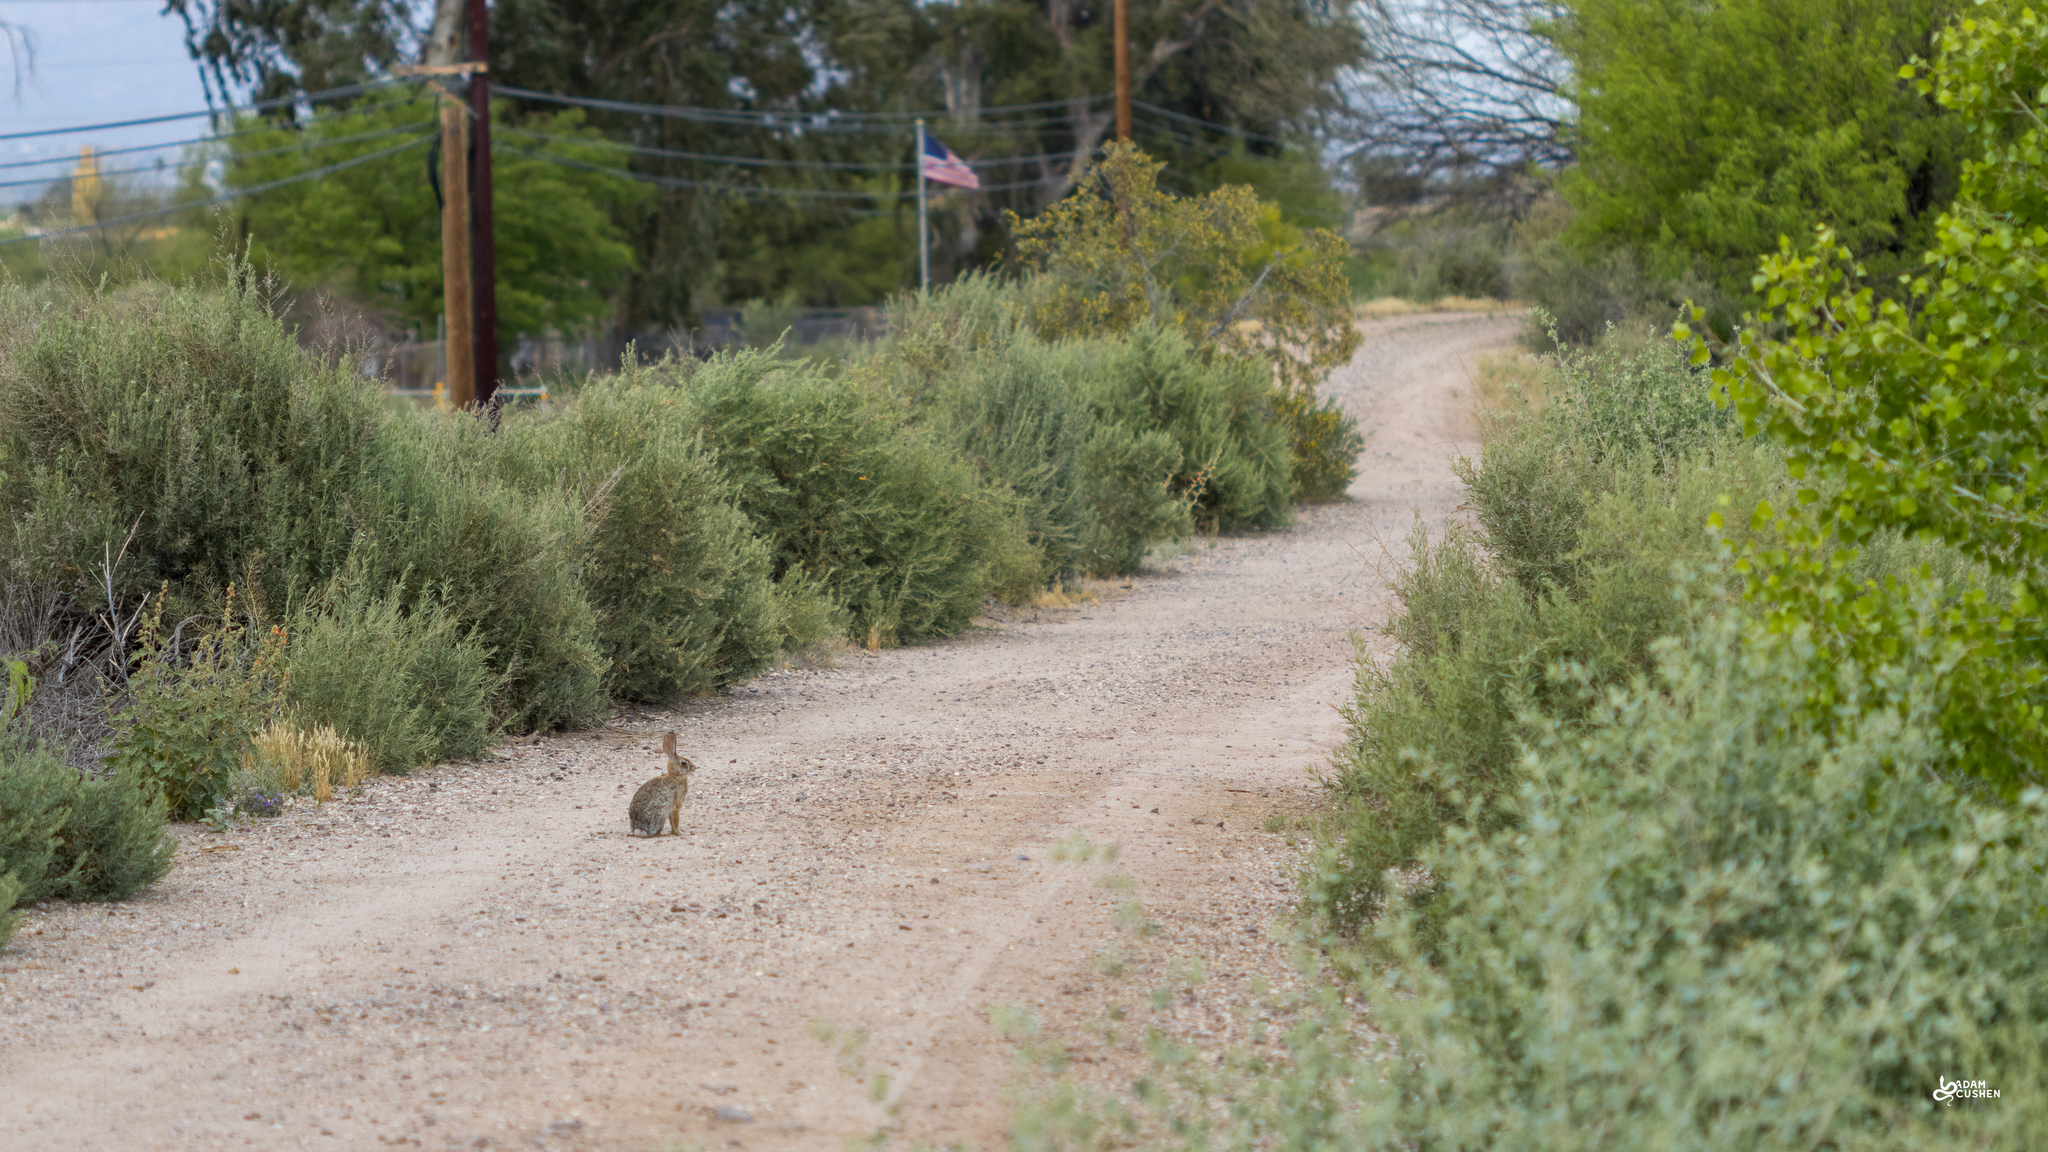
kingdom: Animalia
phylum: Chordata
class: Mammalia
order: Lagomorpha
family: Leporidae
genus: Sylvilagus
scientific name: Sylvilagus audubonii
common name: Desert cottontail
